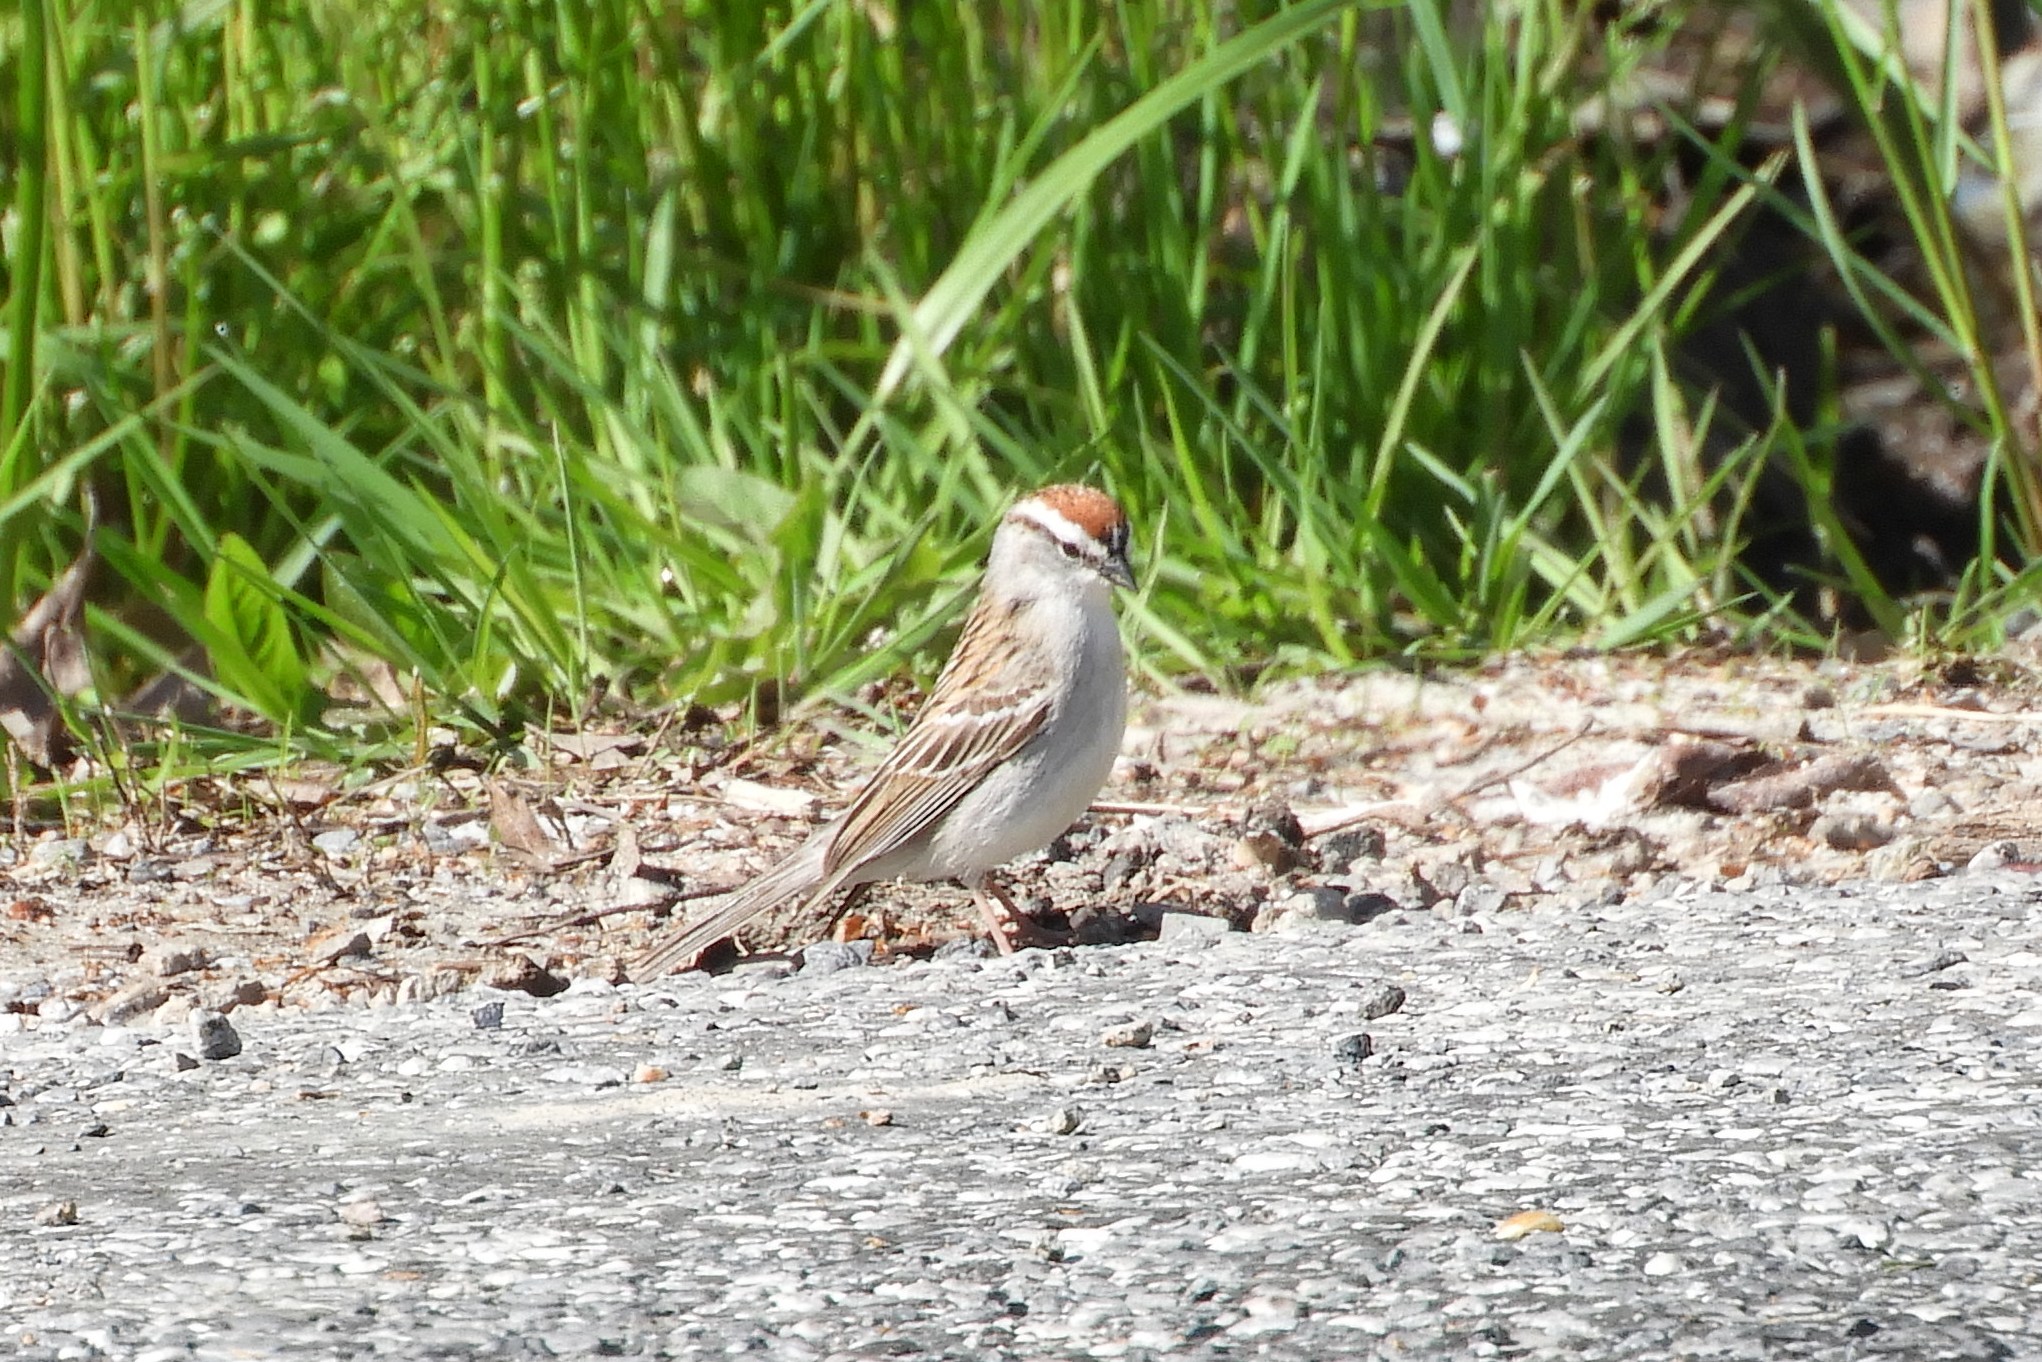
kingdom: Animalia
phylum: Chordata
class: Aves
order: Passeriformes
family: Passerellidae
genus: Spizella
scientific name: Spizella passerina
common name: Chipping sparrow
